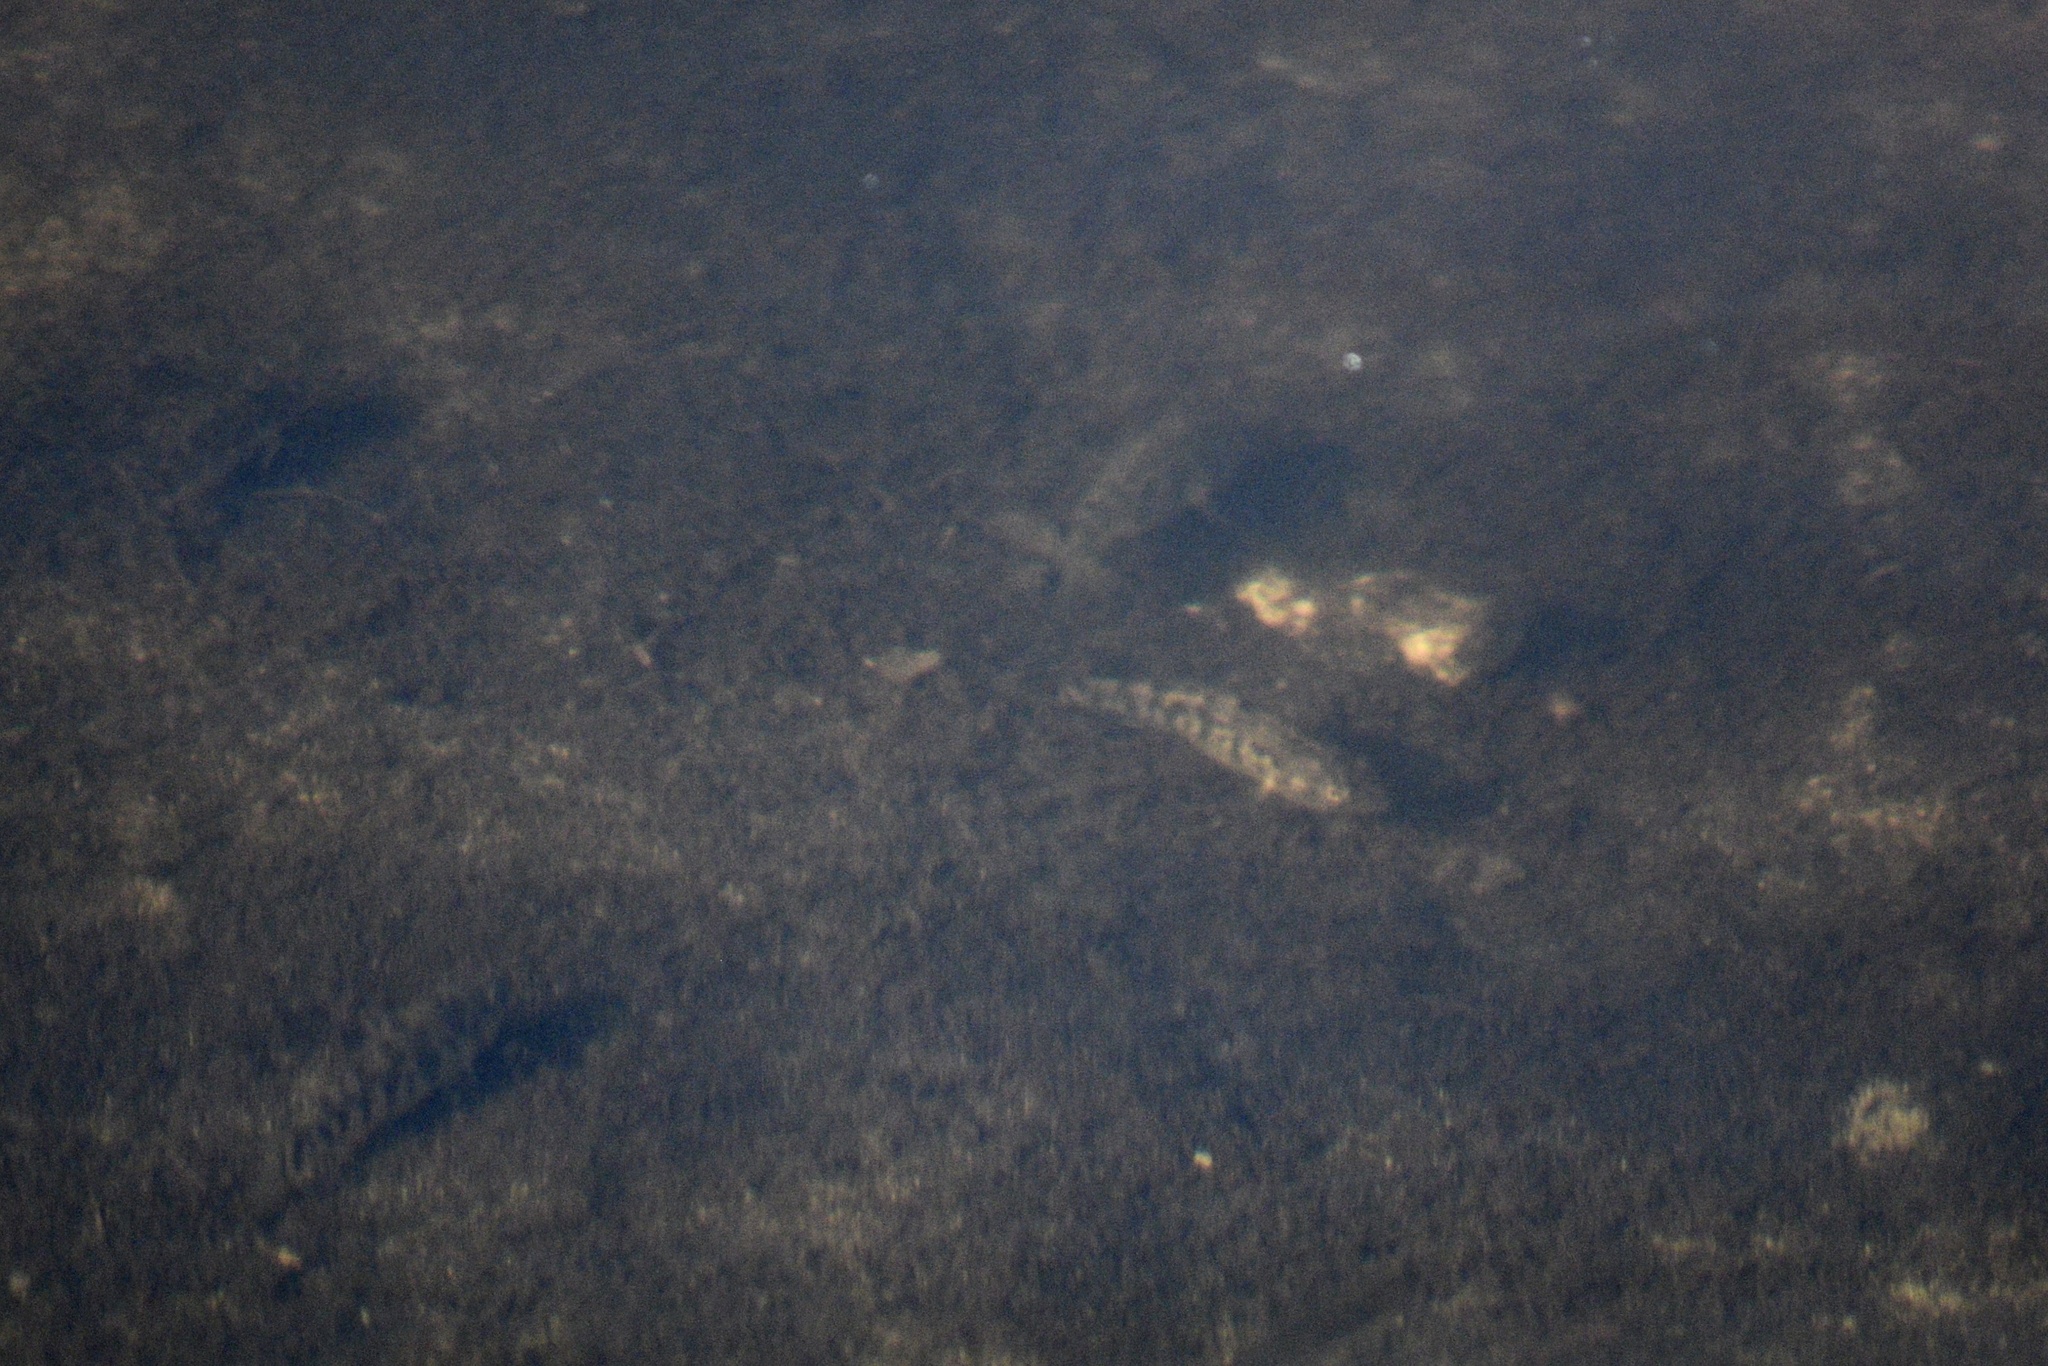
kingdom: Animalia
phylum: Chordata
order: Cyprinodontiformes
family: Cyprinodontidae
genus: Cyprinodon
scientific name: Cyprinodon variegatus
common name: Sheepshead minnow
